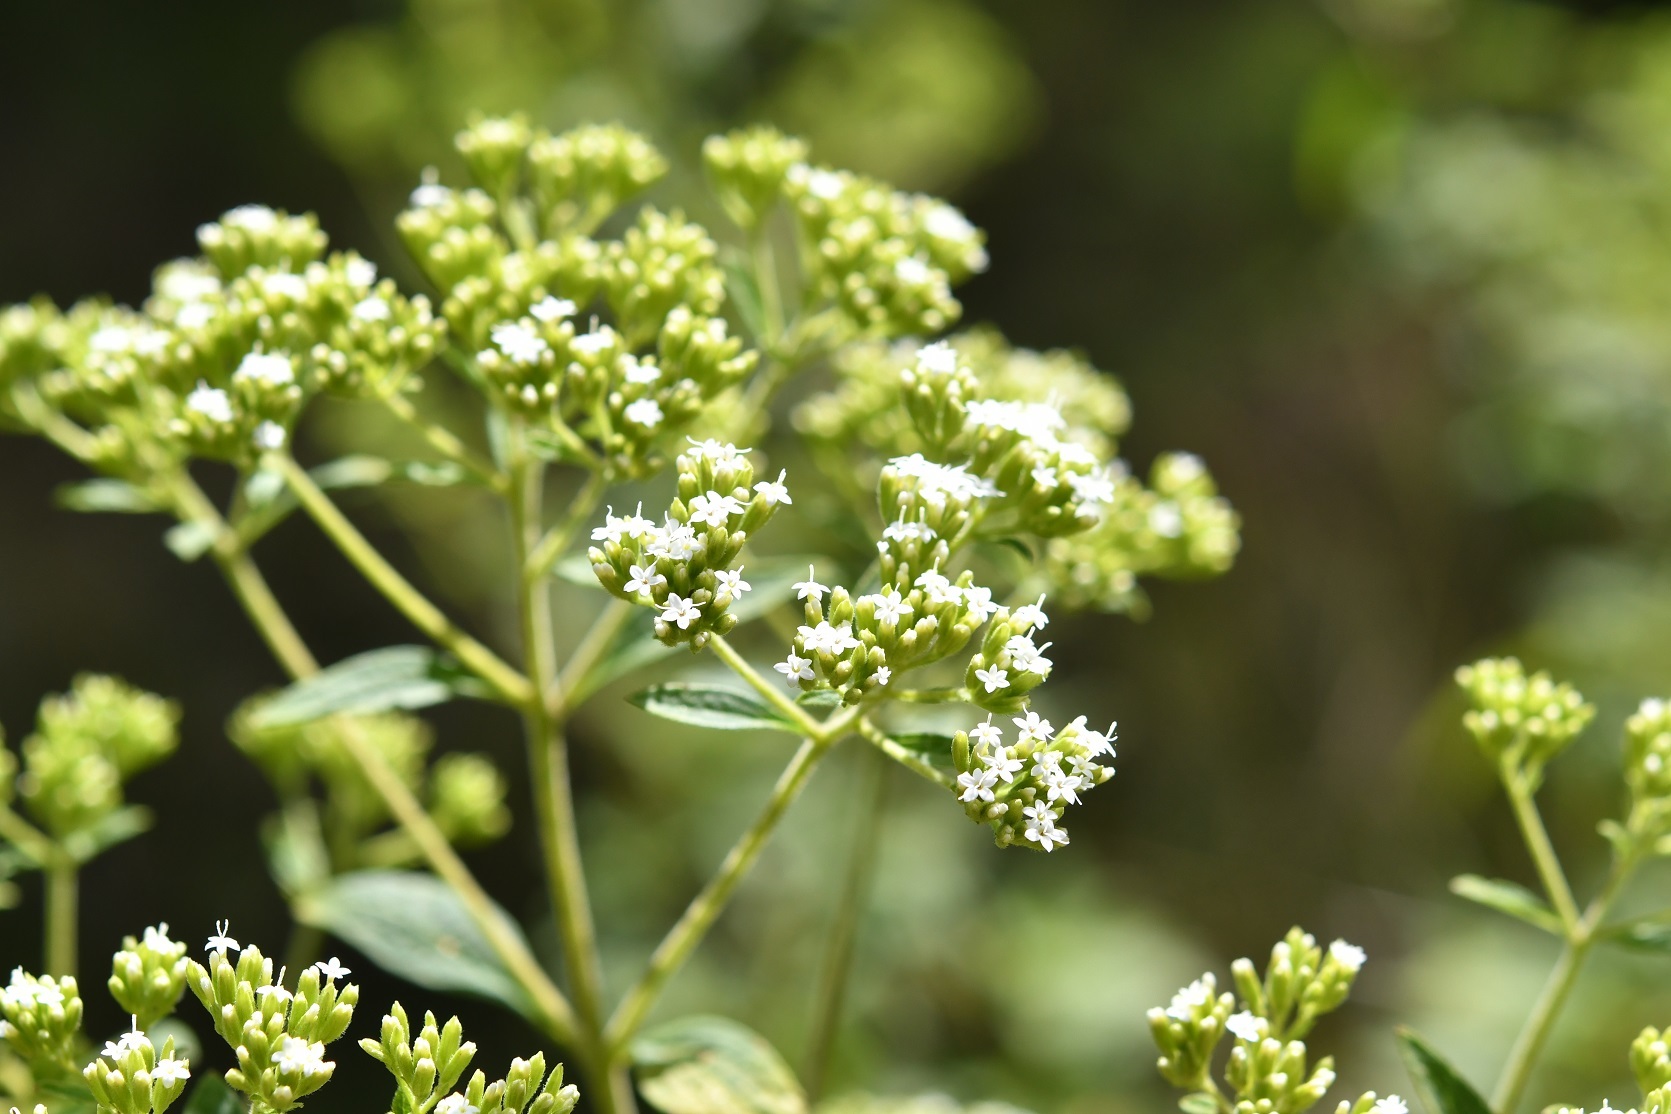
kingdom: Plantae
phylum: Tracheophyta
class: Magnoliopsida
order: Asterales
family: Asteraceae
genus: Stevia
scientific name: Stevia ovata
